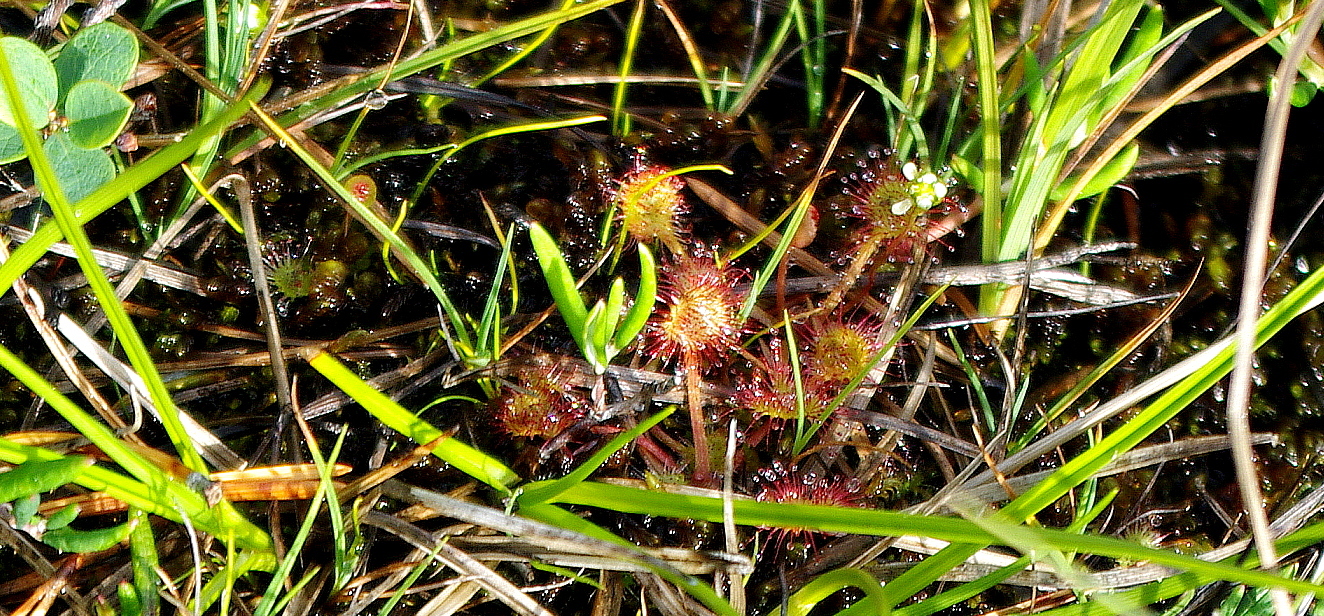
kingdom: Plantae
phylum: Tracheophyta
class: Magnoliopsida
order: Caryophyllales
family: Droseraceae
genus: Drosera
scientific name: Drosera rotundifolia
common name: Round-leaved sundew
